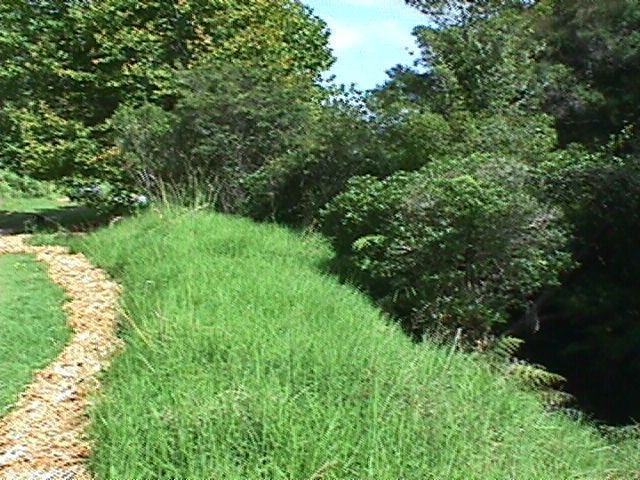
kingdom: Plantae
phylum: Tracheophyta
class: Liliopsida
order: Poales
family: Poaceae
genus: Cenchrus
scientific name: Cenchrus clandestinus
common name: Kikuyugrass
